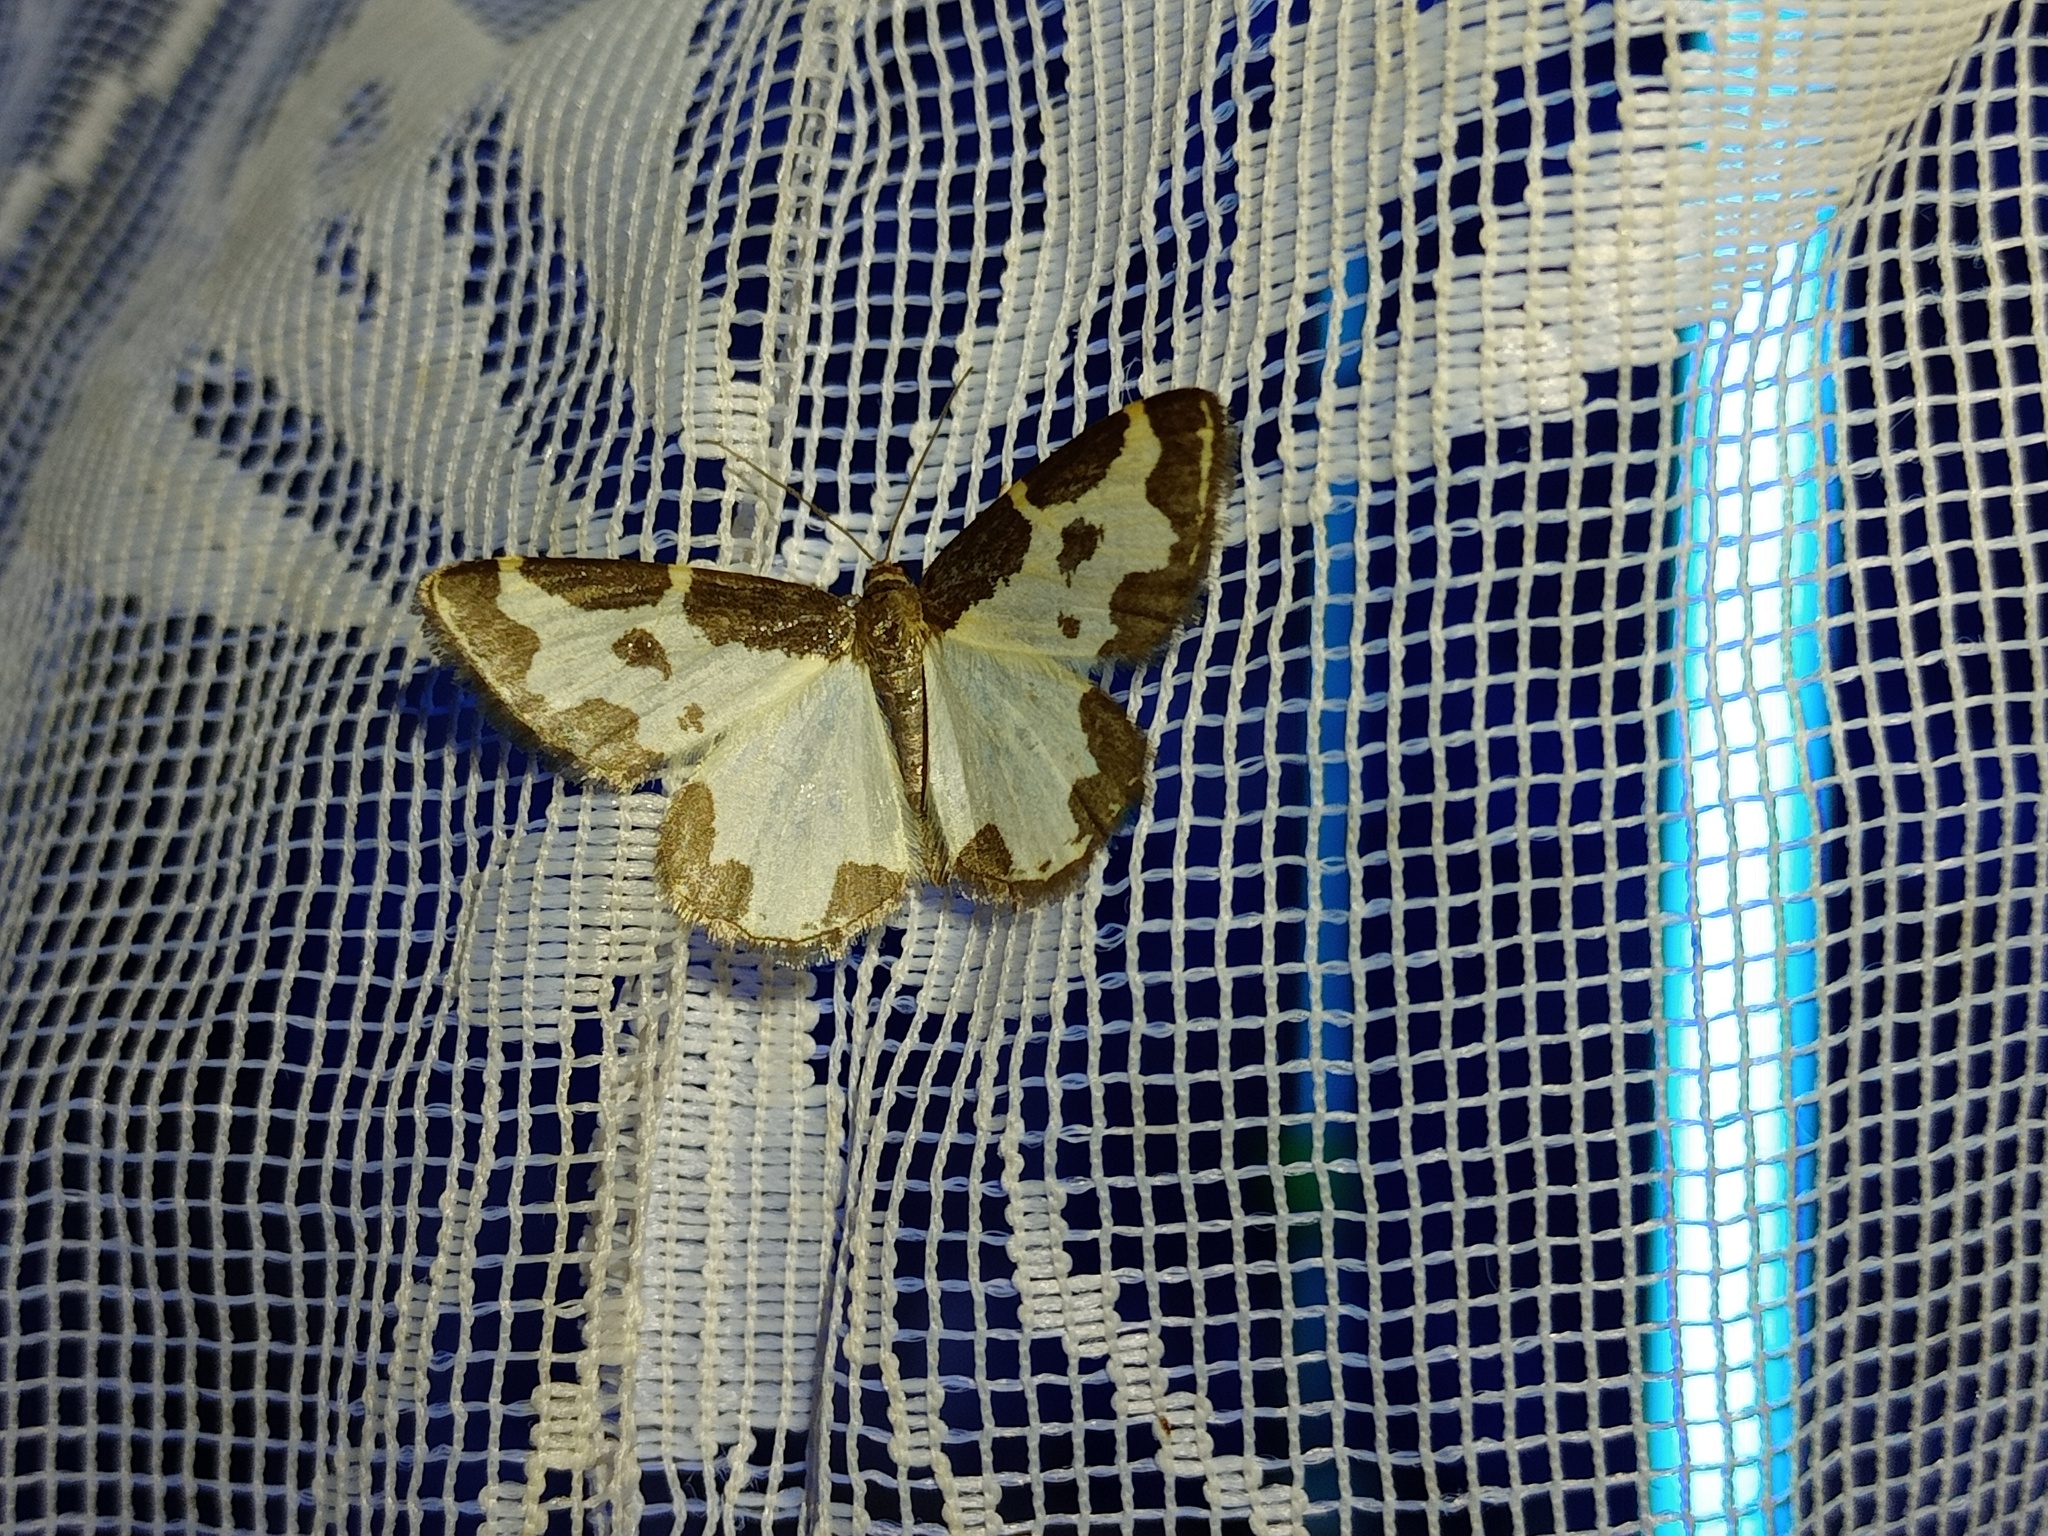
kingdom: Animalia
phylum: Arthropoda
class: Insecta
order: Lepidoptera
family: Geometridae
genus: Lomaspilis
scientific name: Lomaspilis marginata
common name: Clouded border
